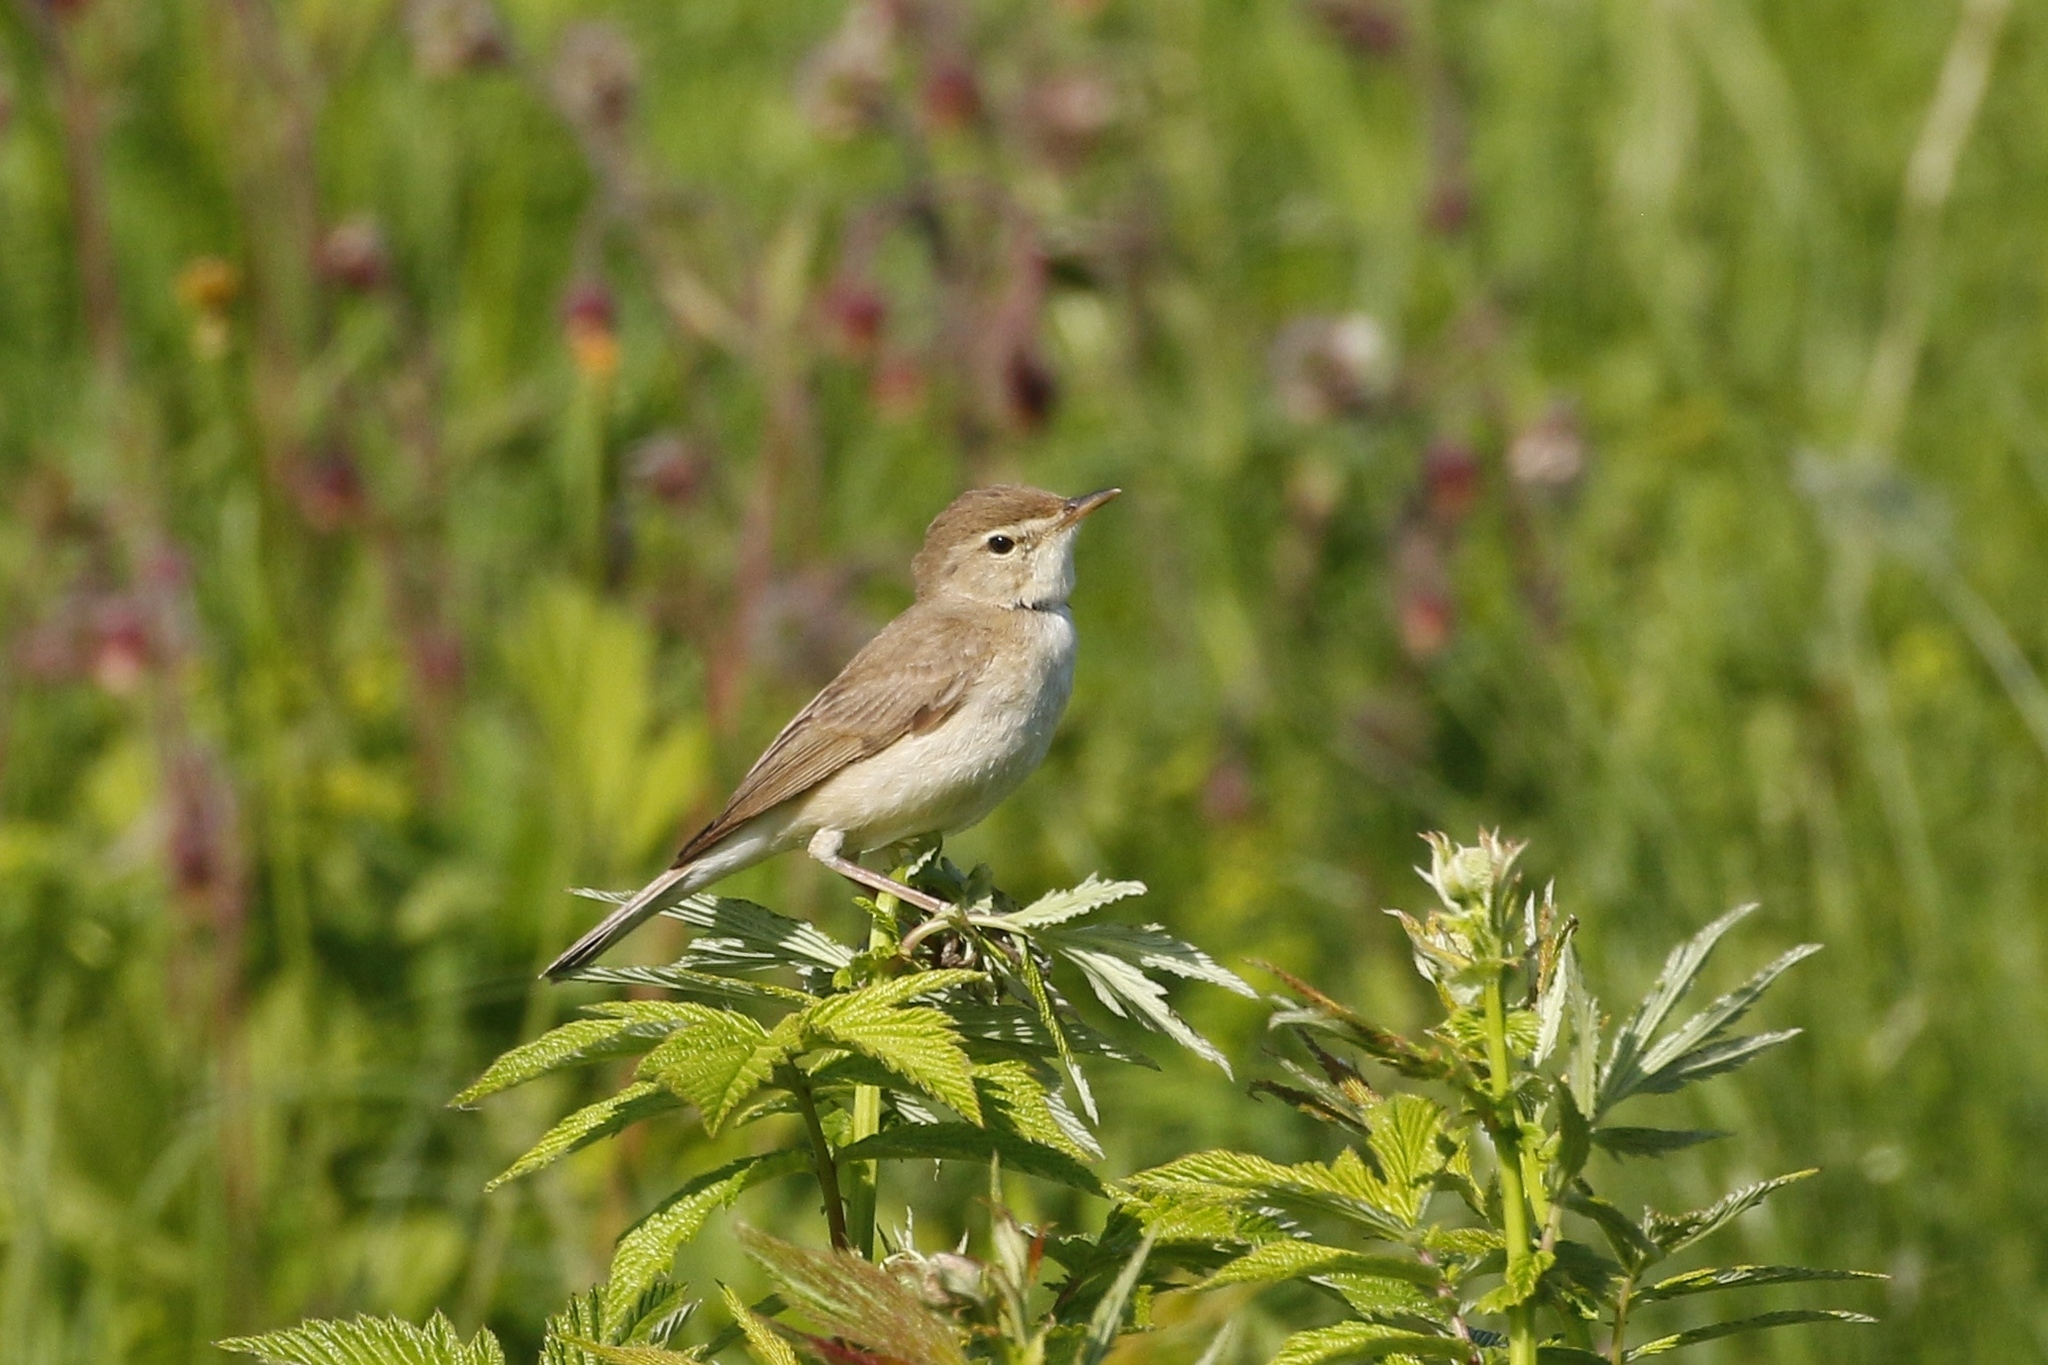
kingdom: Animalia
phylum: Chordata
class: Aves
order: Passeriformes
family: Acrocephalidae
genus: Acrocephalus
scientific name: Acrocephalus palustris
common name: Marsh warbler
